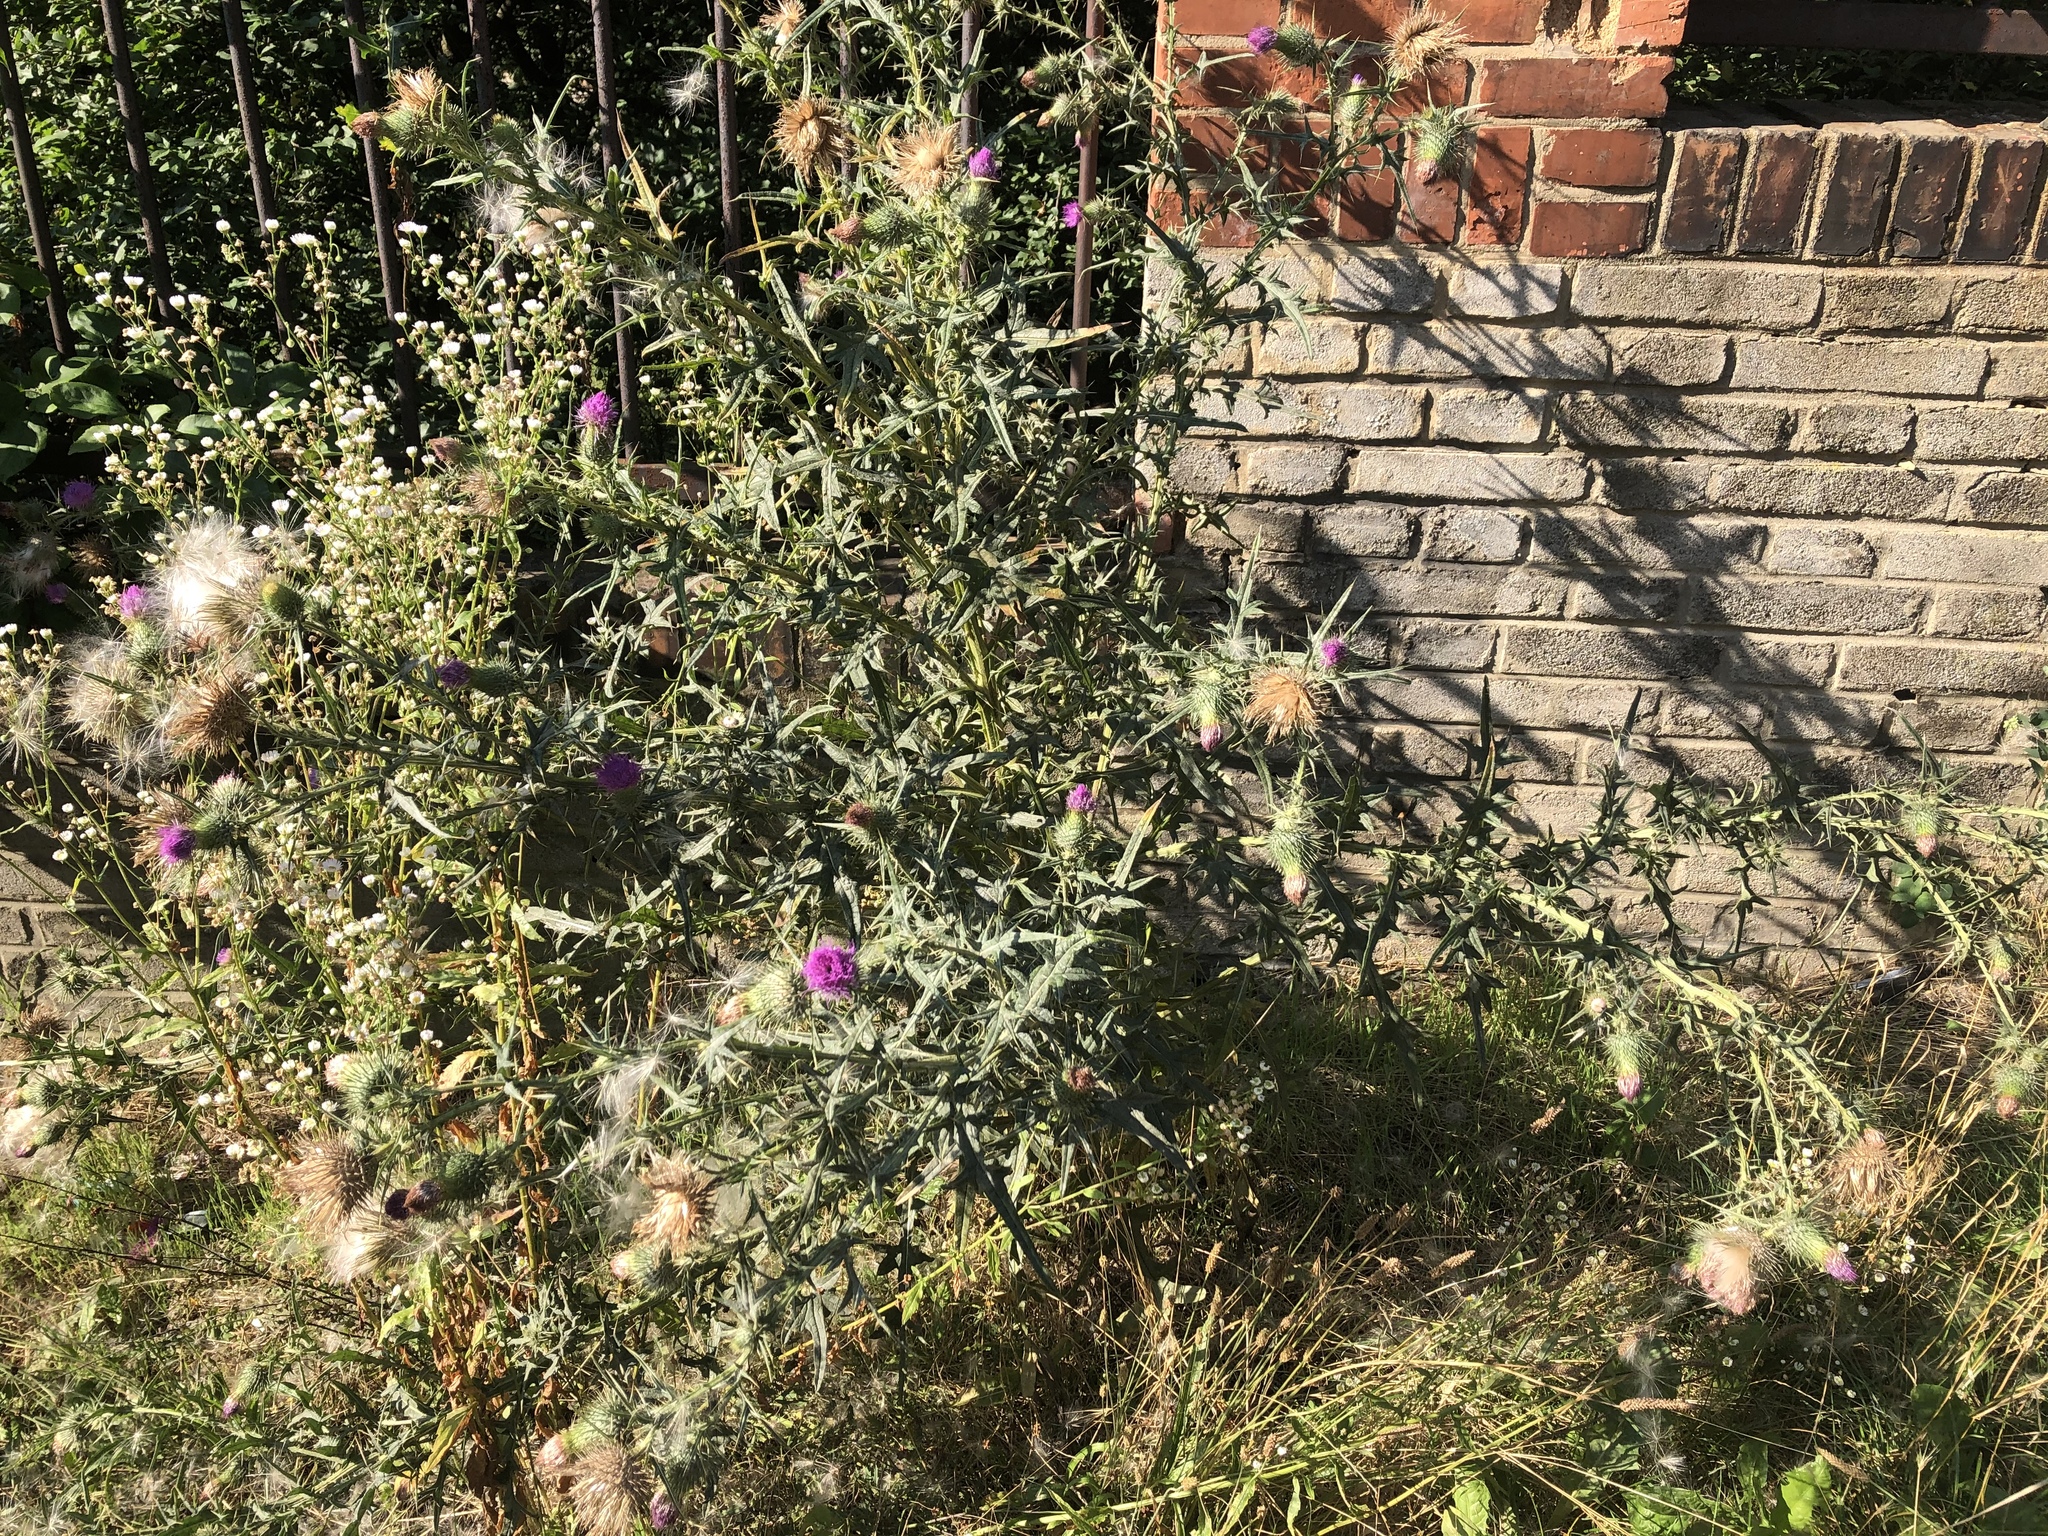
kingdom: Plantae
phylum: Tracheophyta
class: Magnoliopsida
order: Asterales
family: Asteraceae
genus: Cirsium
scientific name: Cirsium vulgare
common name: Bull thistle
